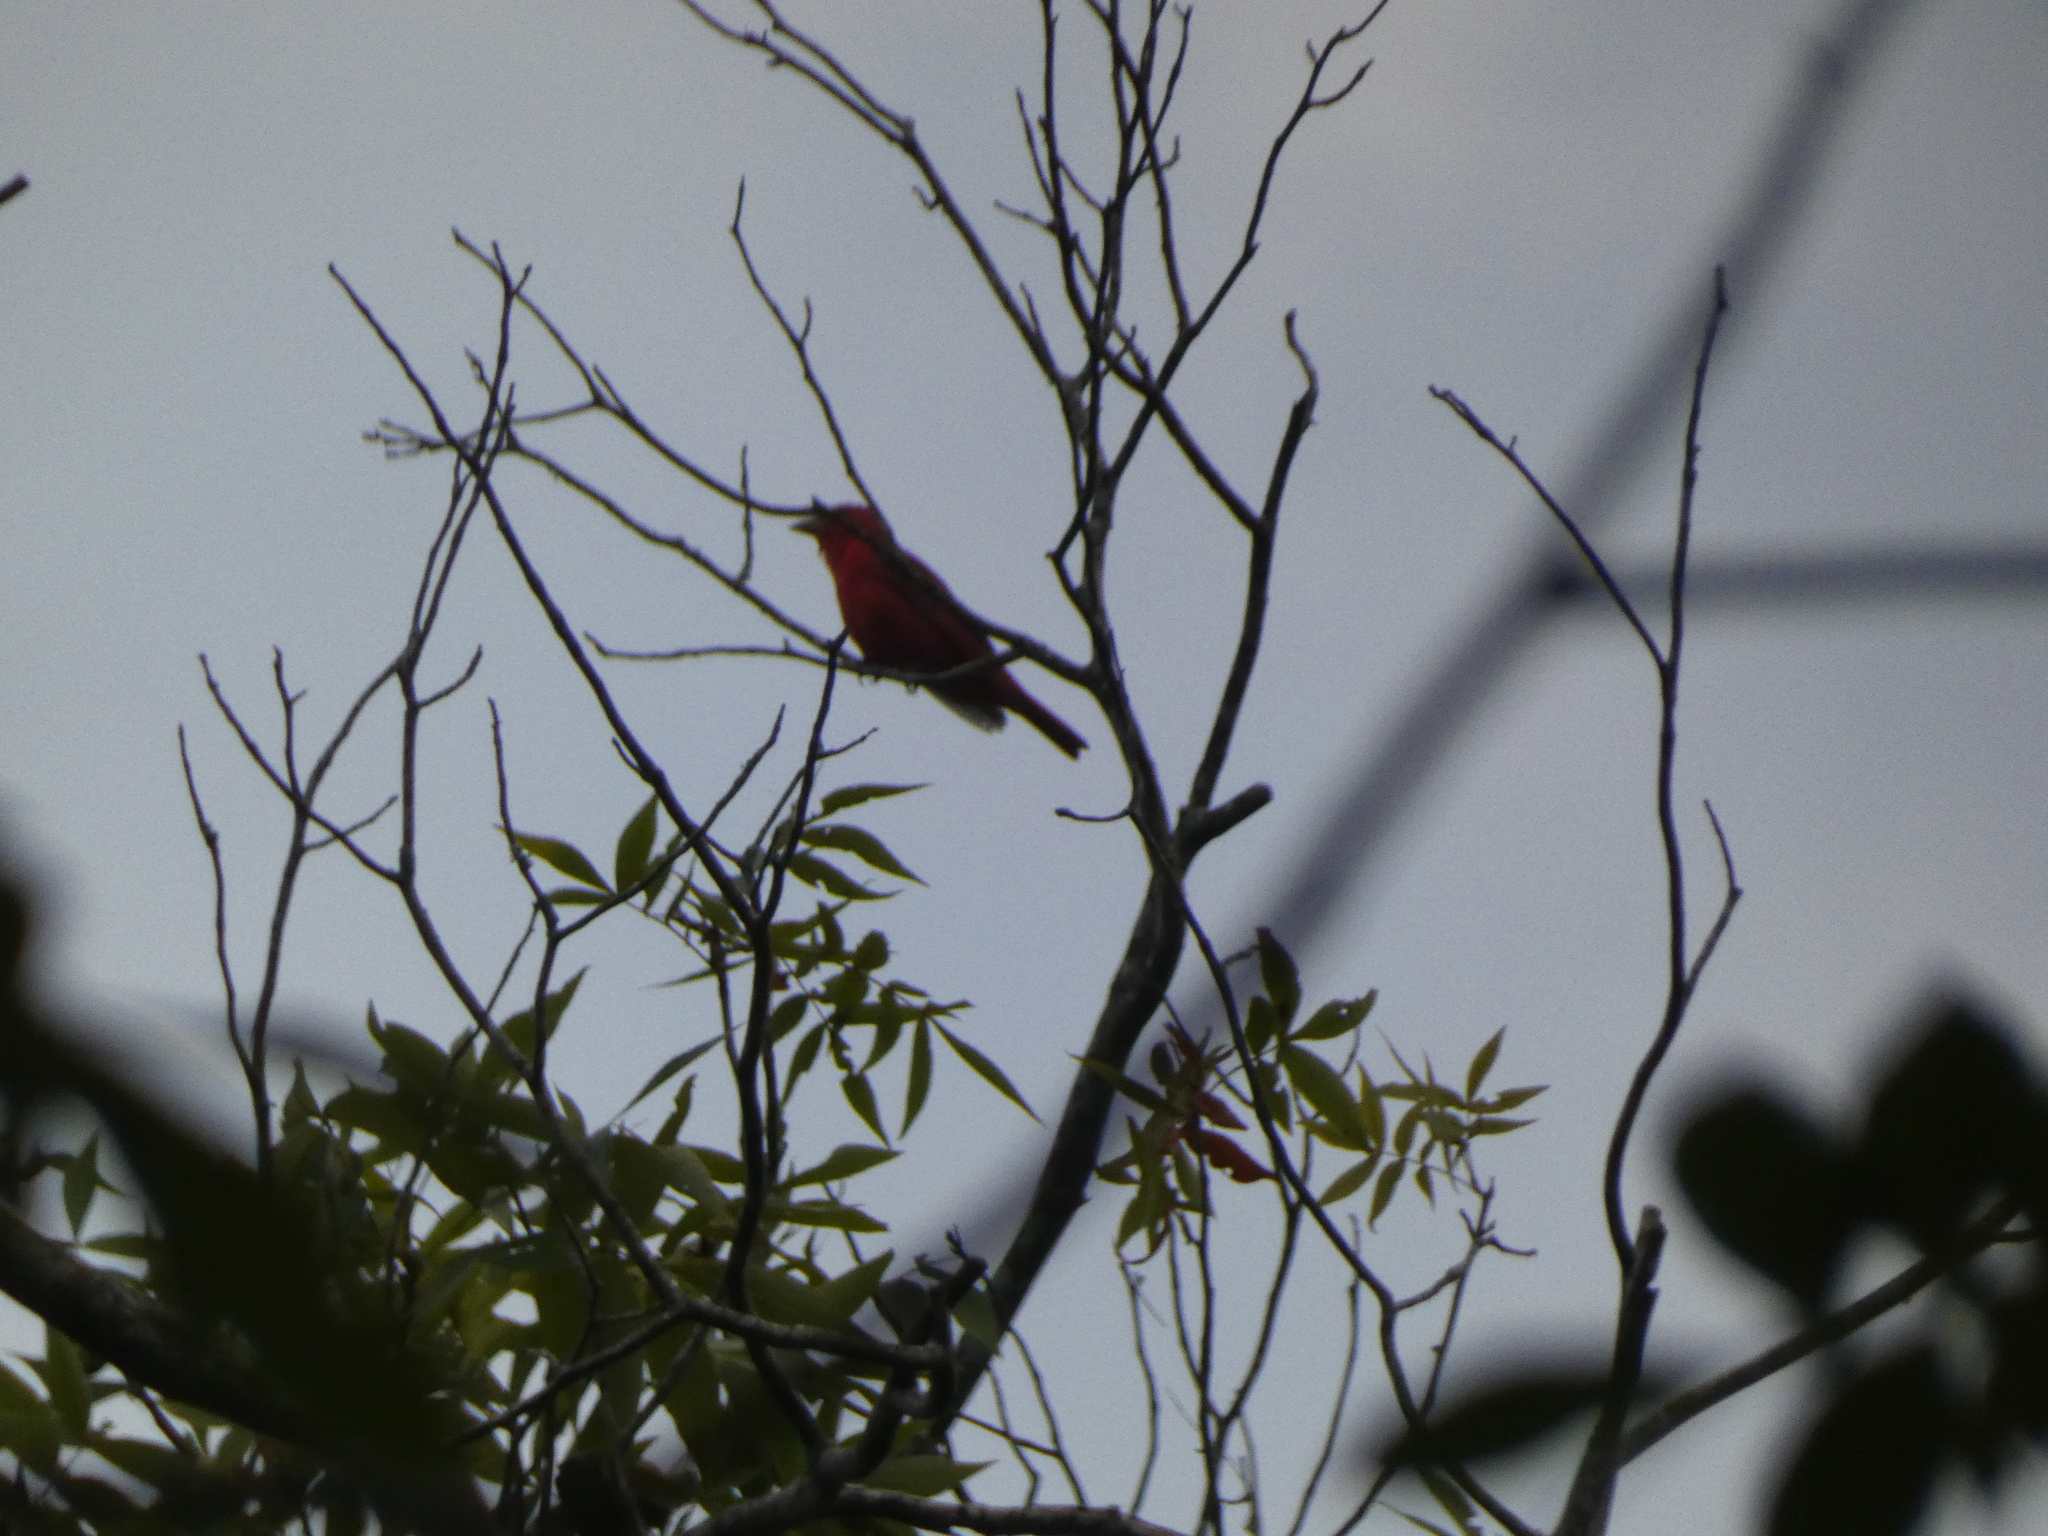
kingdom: Animalia
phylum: Chordata
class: Aves
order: Passeriformes
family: Cardinalidae
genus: Piranga
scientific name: Piranga rubra
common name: Summer tanager
